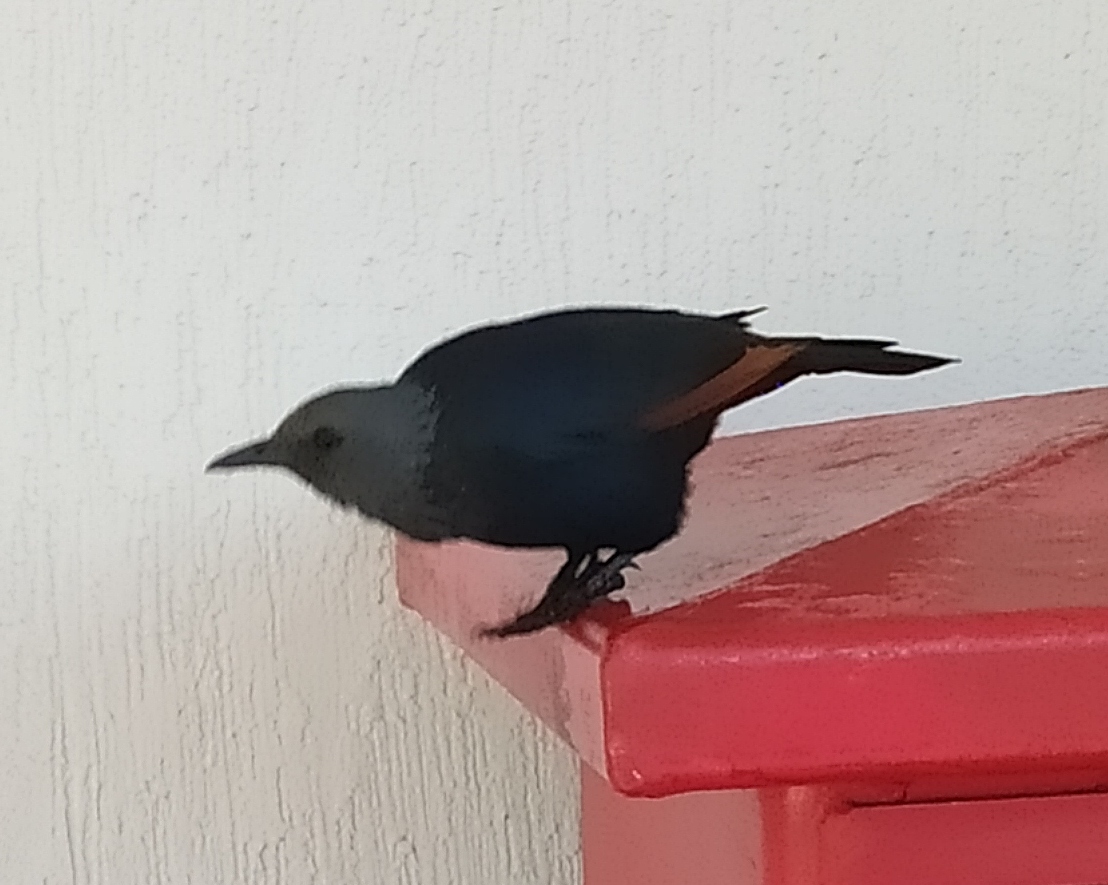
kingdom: Animalia
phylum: Chordata
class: Aves
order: Passeriformes
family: Sturnidae
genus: Onychognathus
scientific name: Onychognathus morio
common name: Red-winged starling
